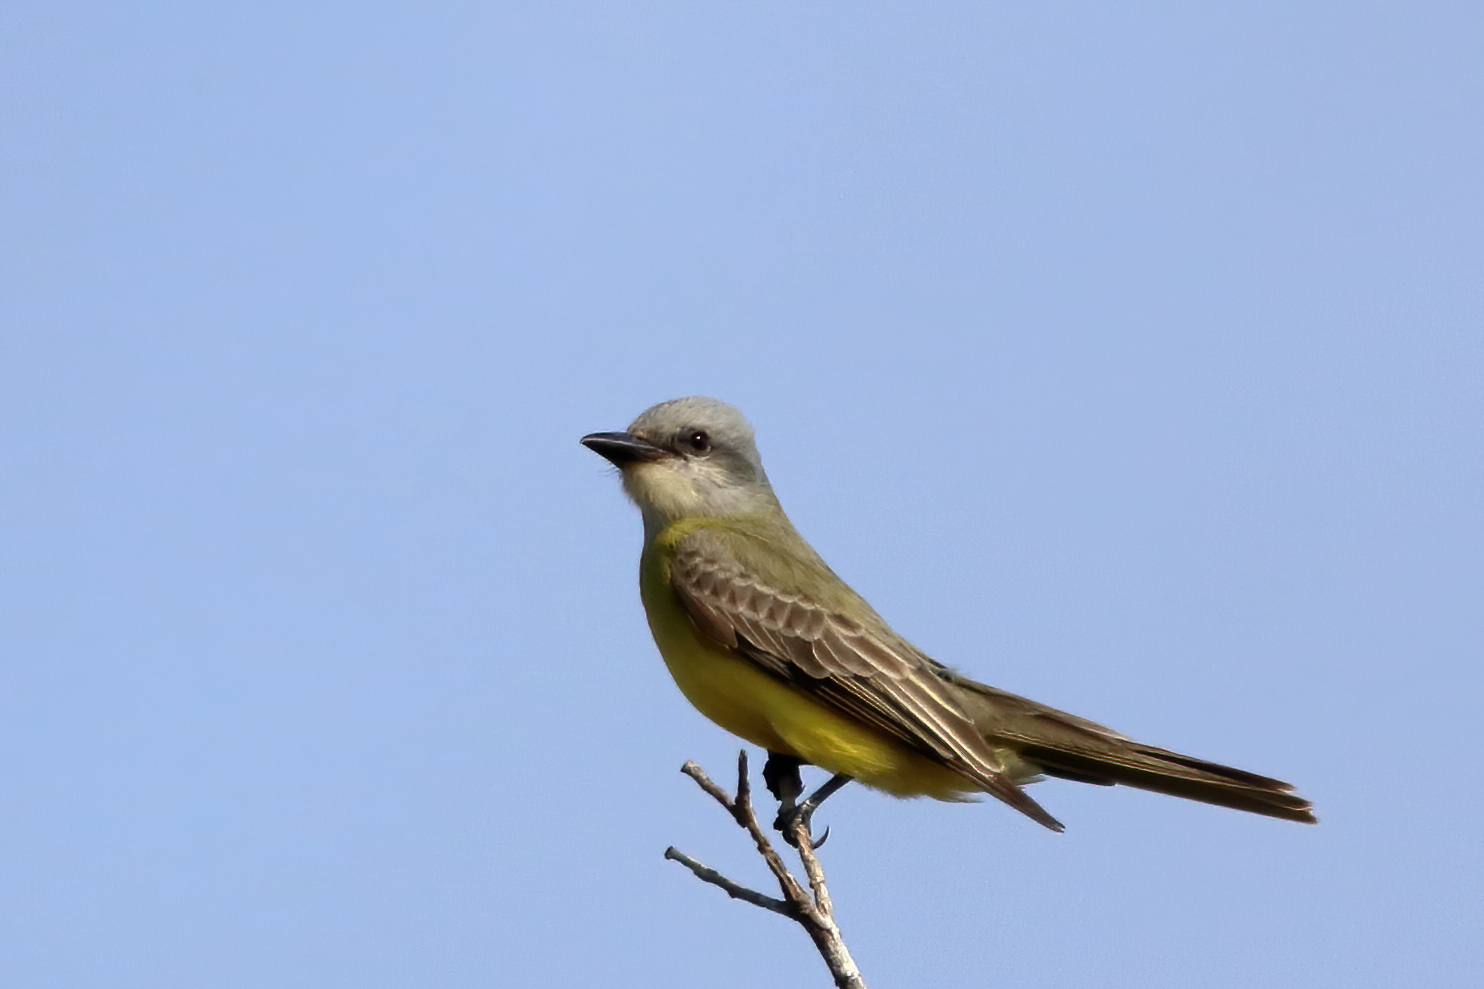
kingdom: Animalia
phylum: Chordata
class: Aves
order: Passeriformes
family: Tyrannidae
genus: Tyrannus
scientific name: Tyrannus couchii
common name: Couch's kingbird
